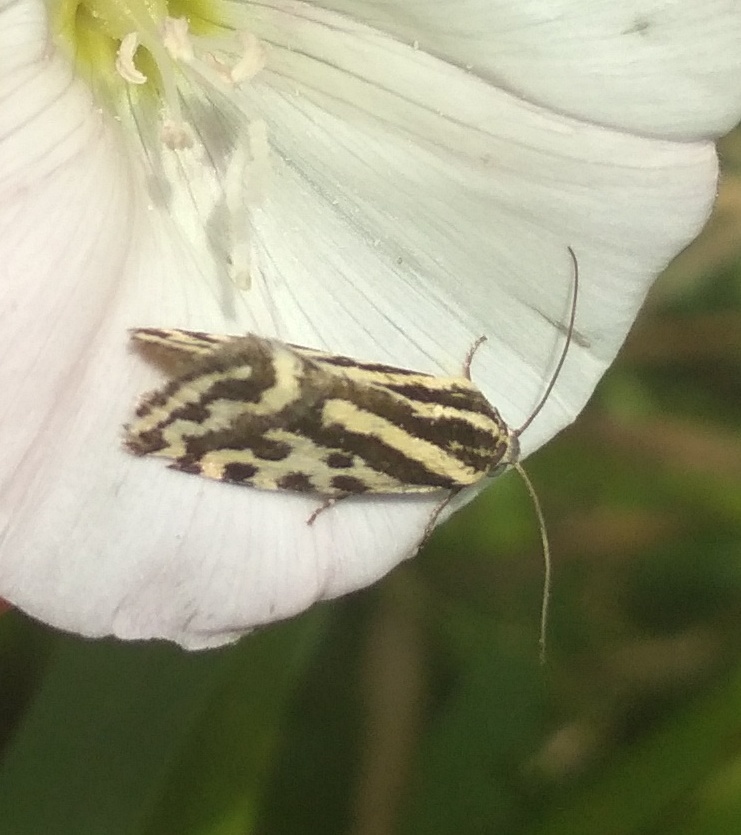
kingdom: Animalia
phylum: Arthropoda
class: Insecta
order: Lepidoptera
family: Noctuidae
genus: Acontia
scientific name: Acontia trabealis
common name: Spotted sulphur
